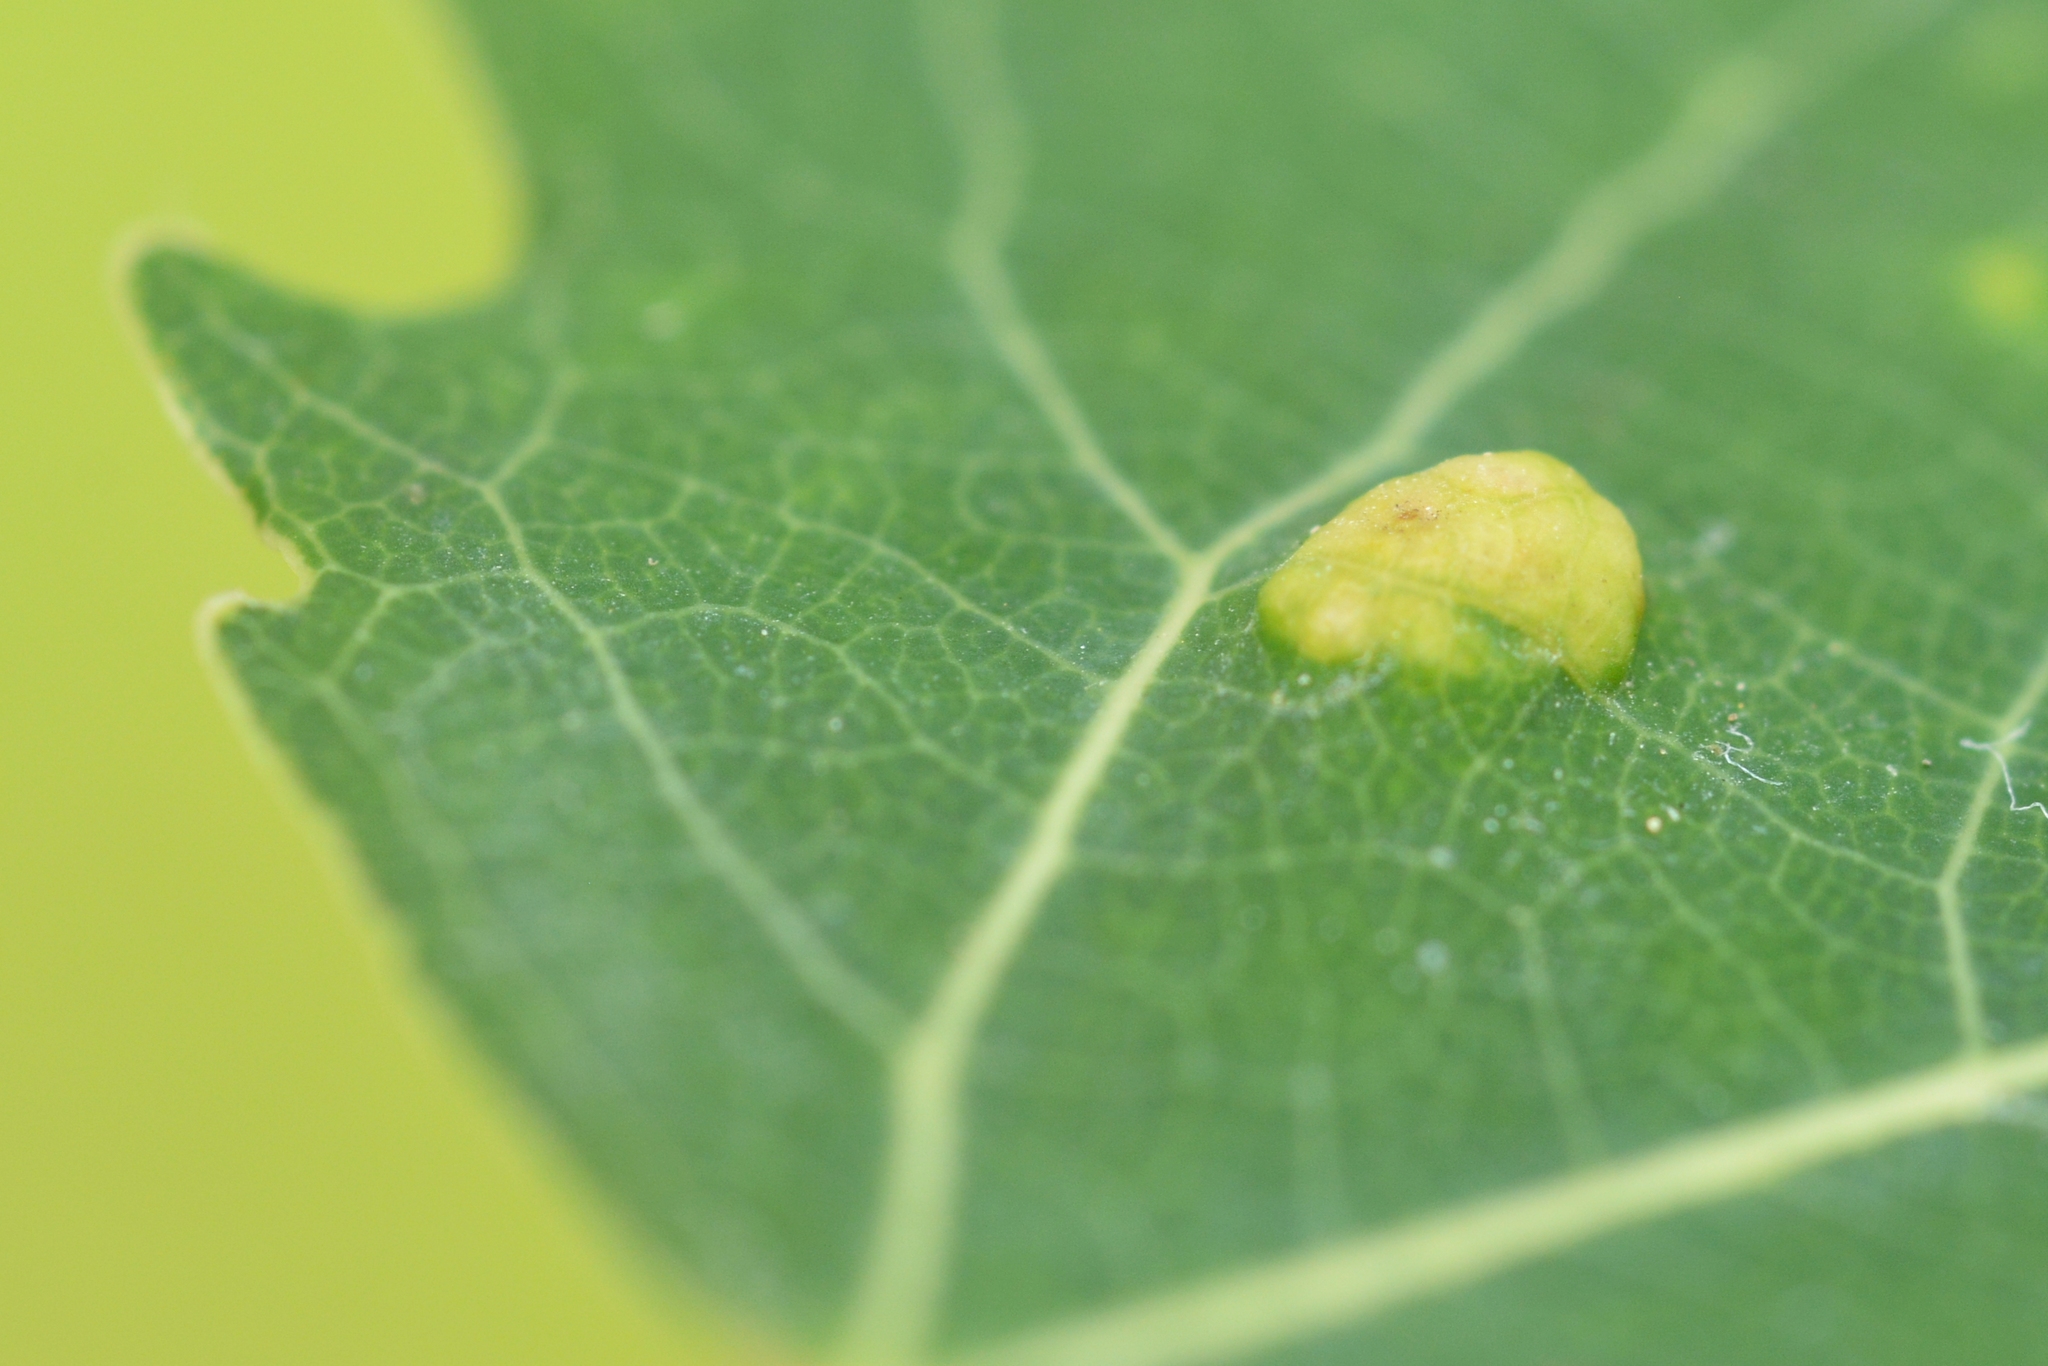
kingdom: Animalia
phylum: Arthropoda
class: Arachnida
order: Trombidiformes
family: Eriophyidae
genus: Phyllocoptes
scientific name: Phyllocoptes populi
